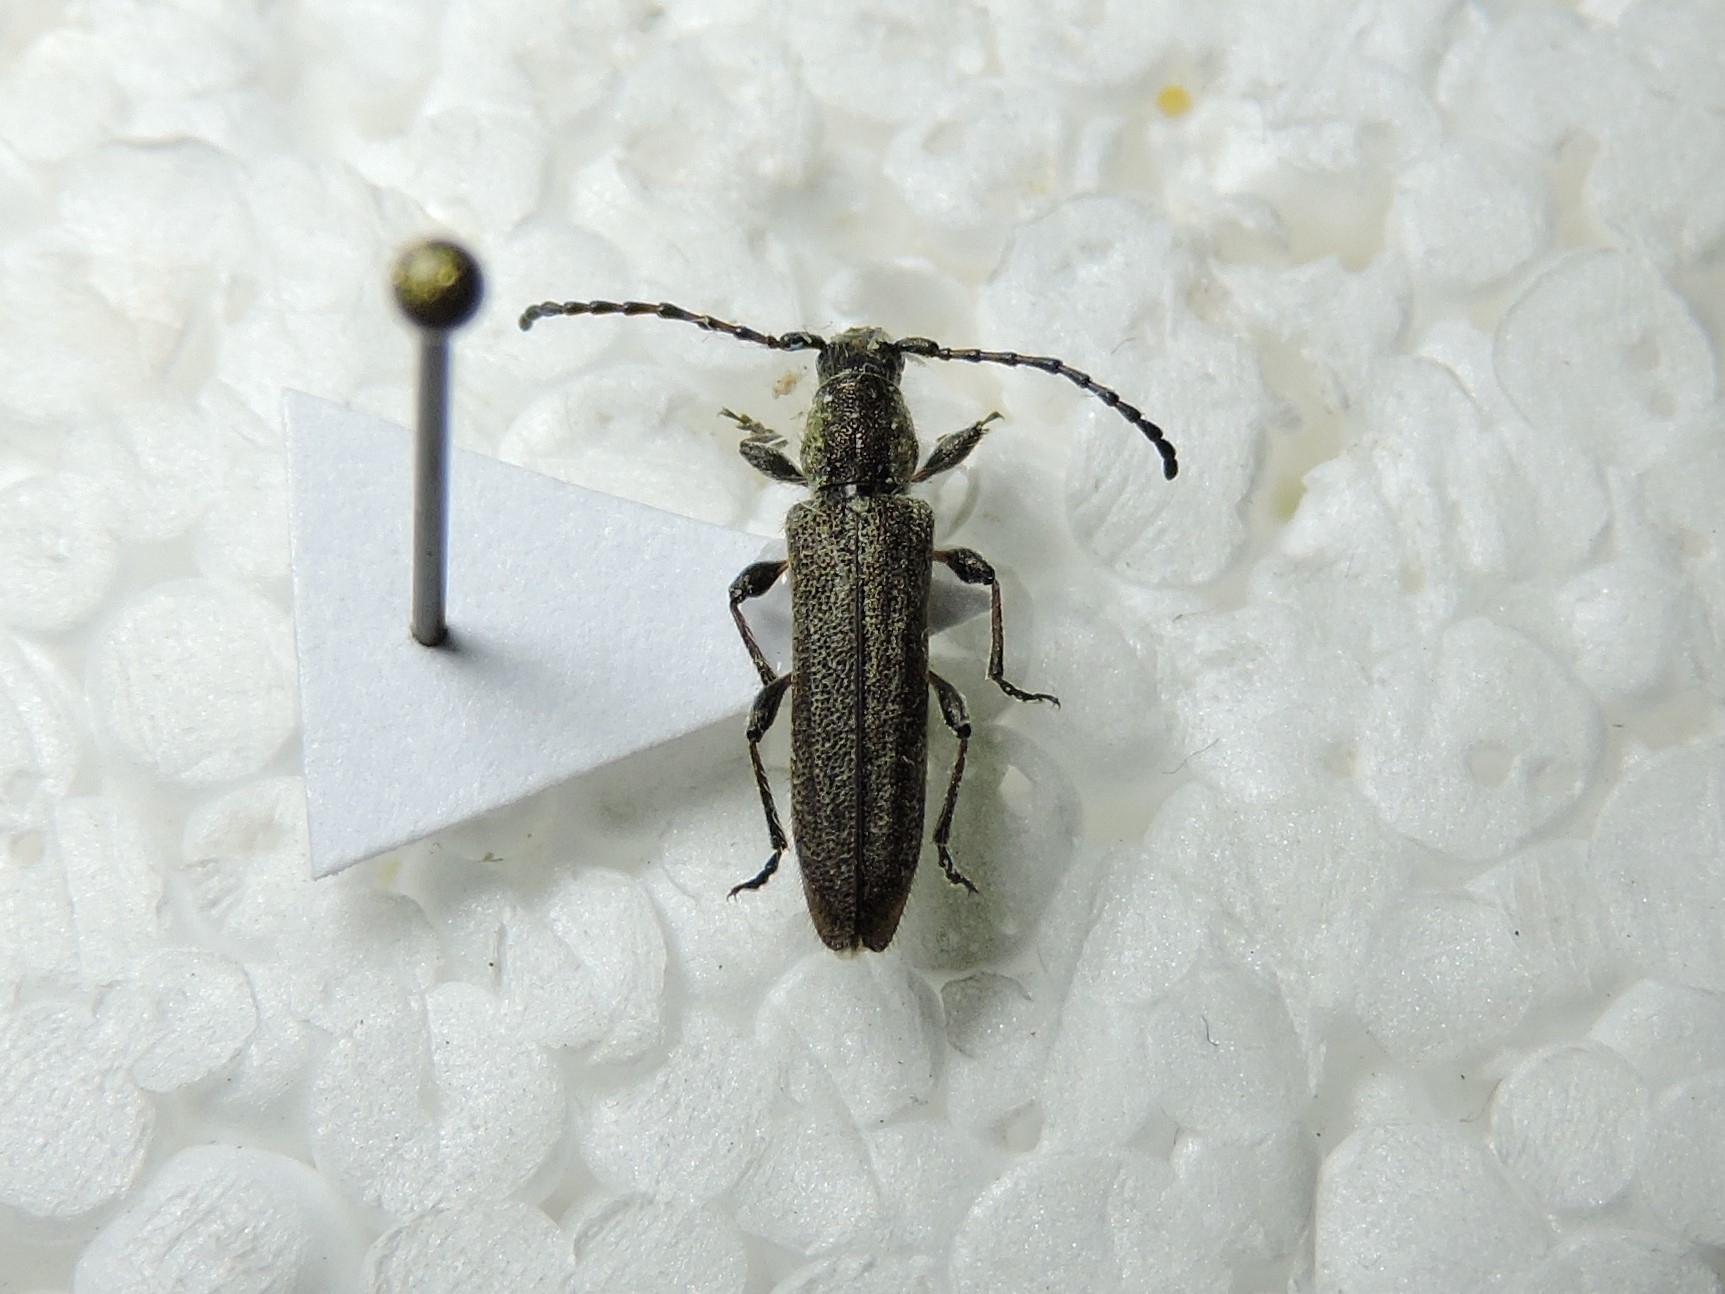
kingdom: Animalia
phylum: Arthropoda
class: Insecta
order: Coleoptera
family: Cerambycidae
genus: Deilus
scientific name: Deilus fugax
